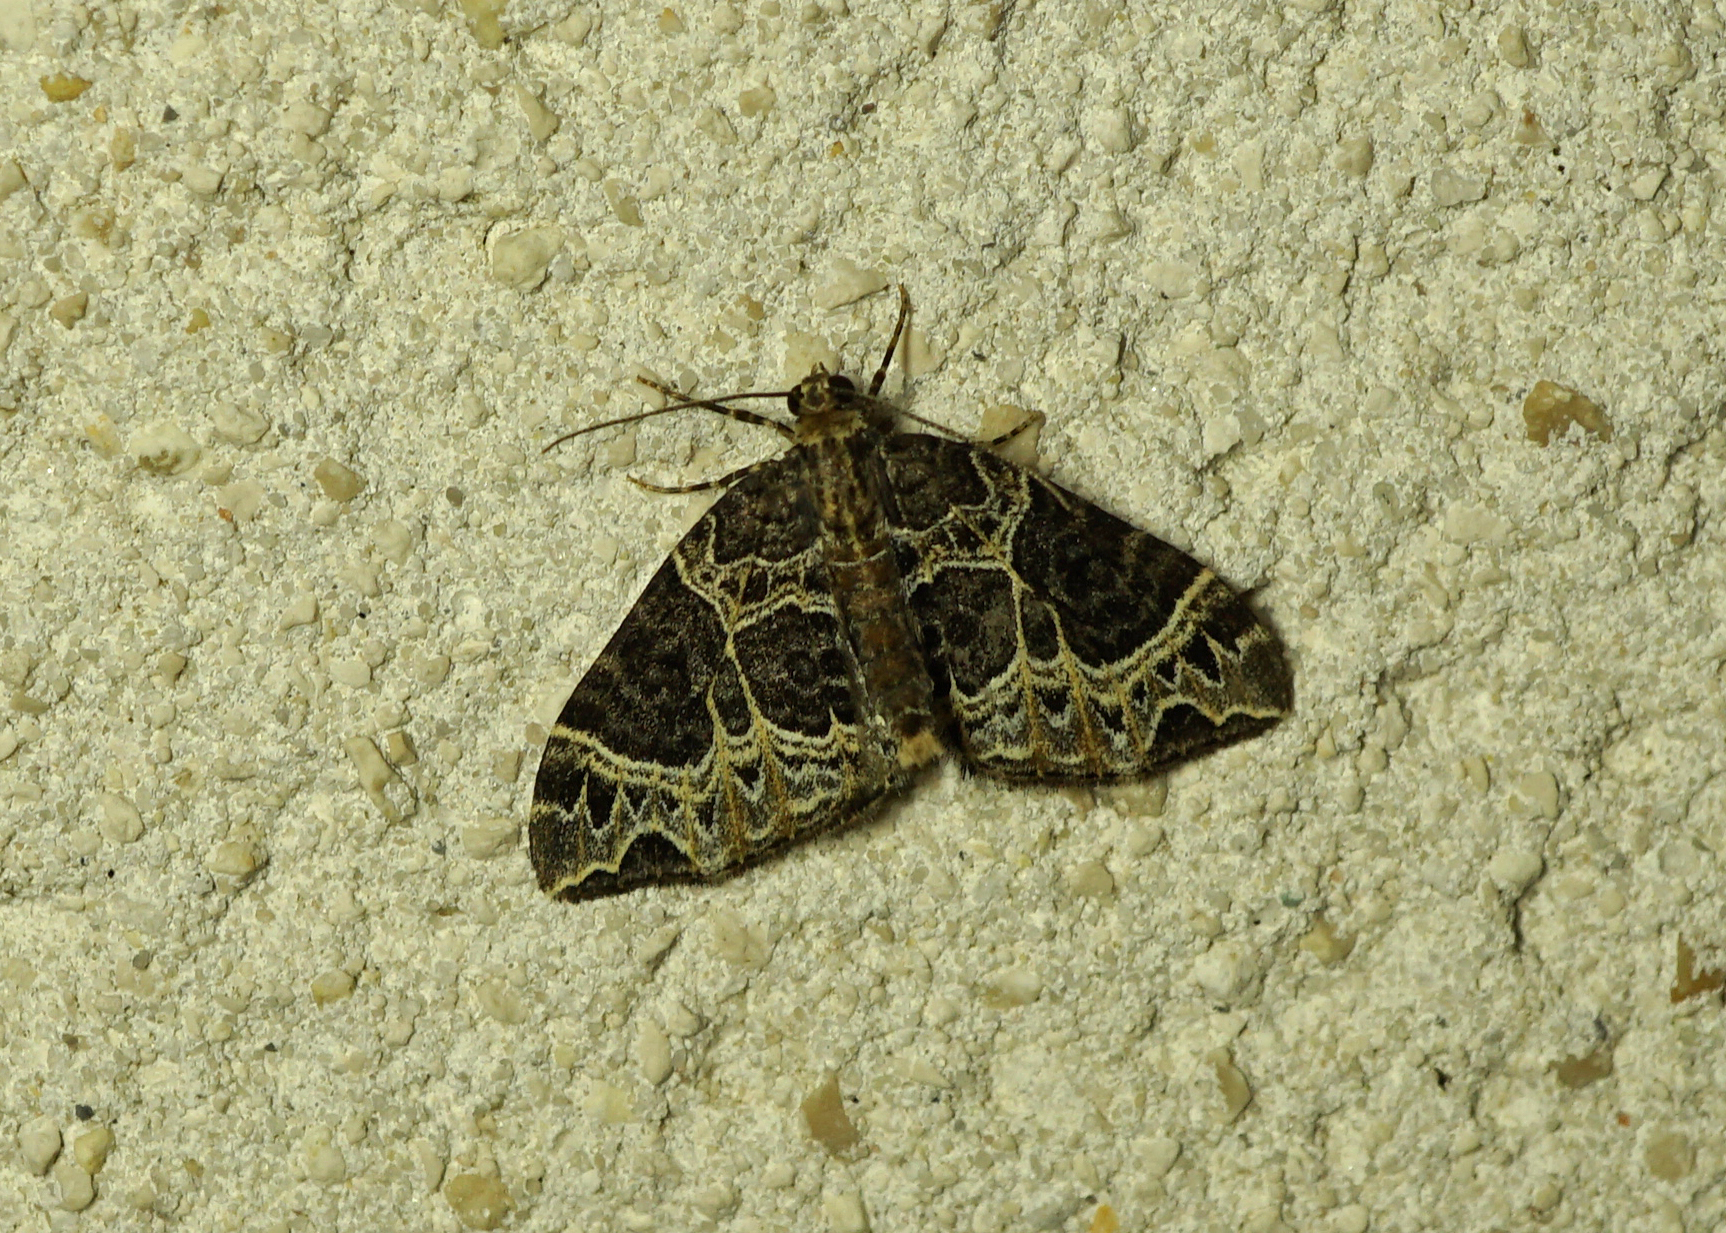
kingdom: Animalia
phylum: Arthropoda
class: Insecta
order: Lepidoptera
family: Geometridae
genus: Ecliptopera
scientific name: Ecliptopera silaceata
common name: Small phoenix
